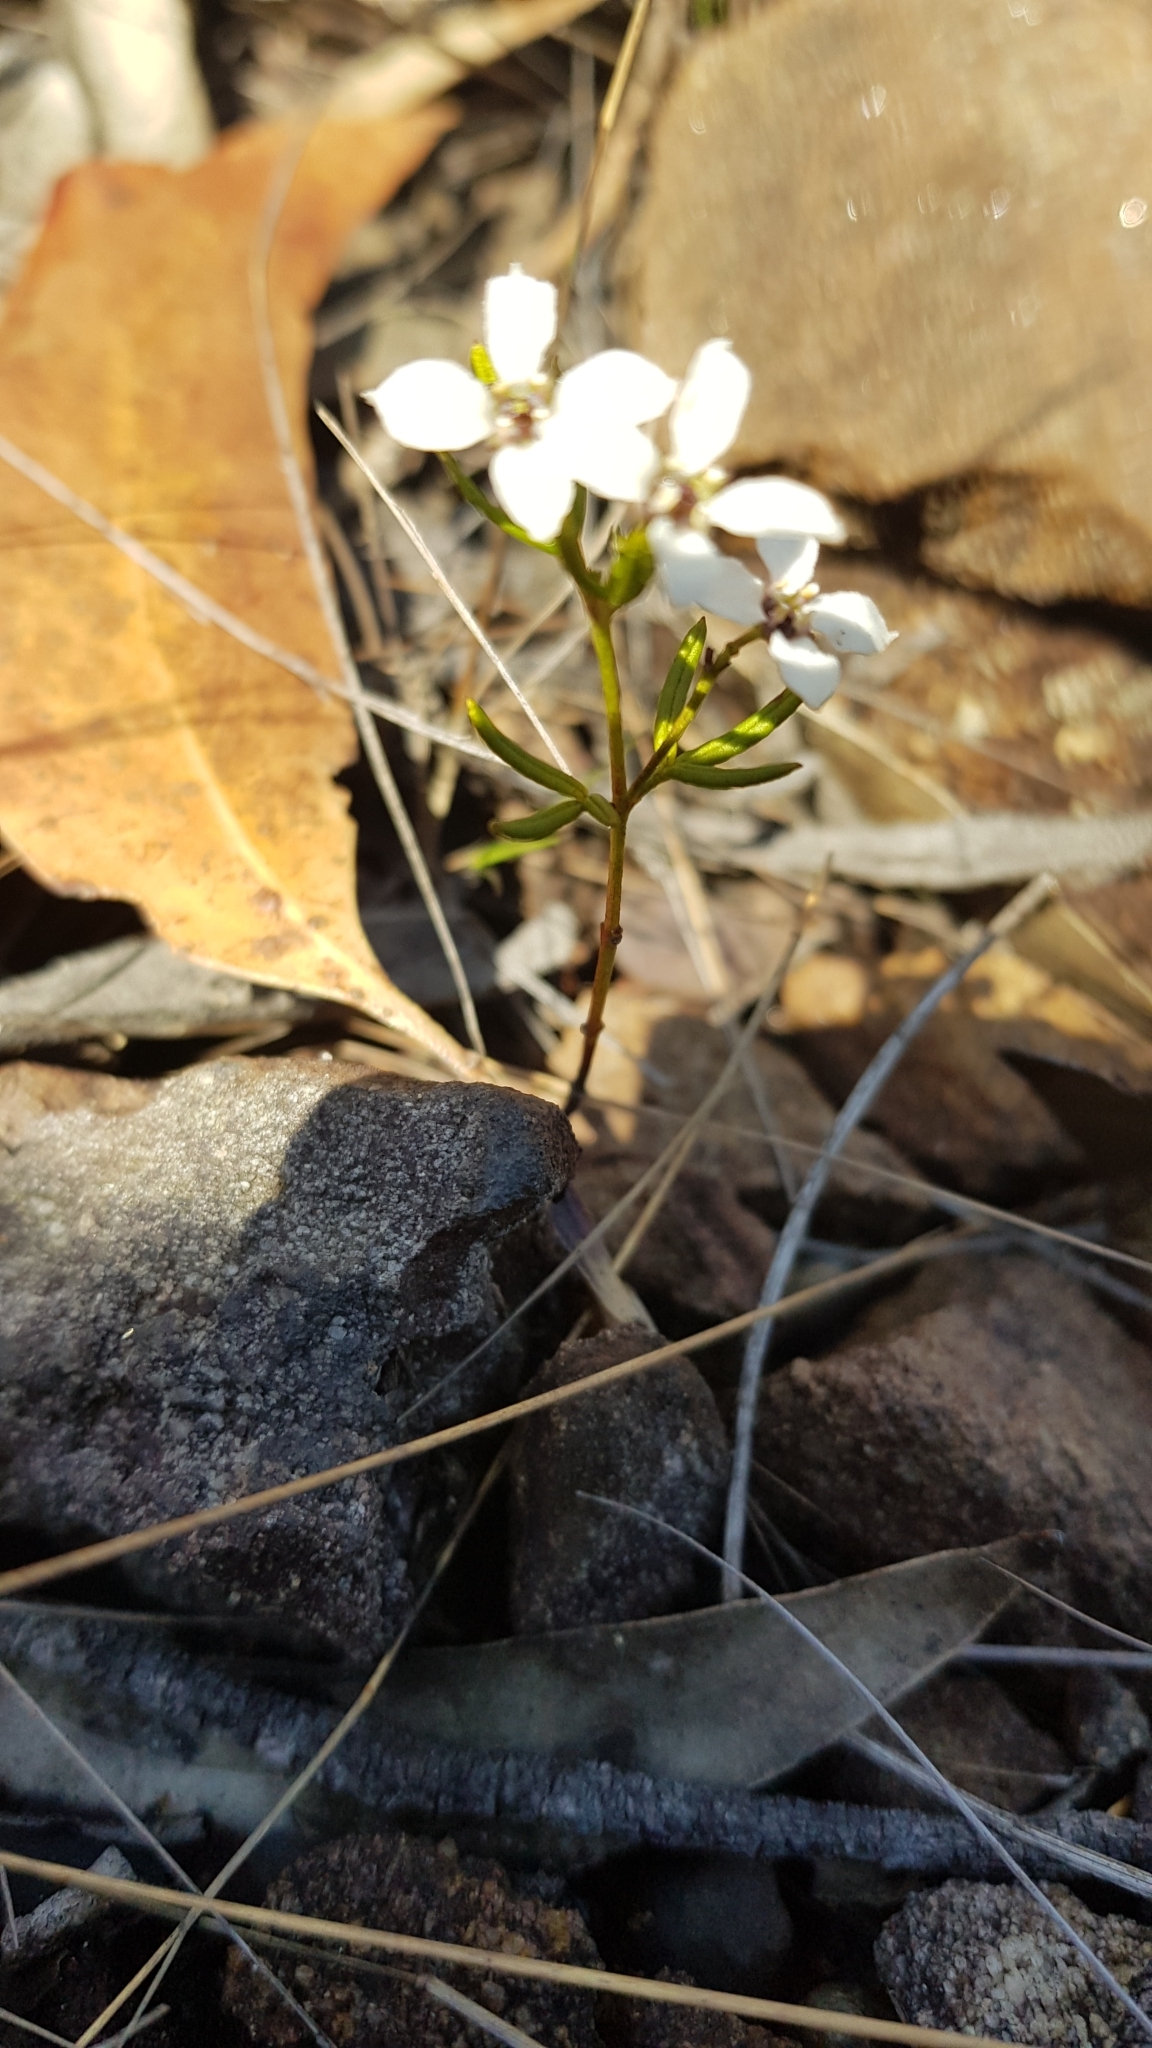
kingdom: Plantae
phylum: Tracheophyta
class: Magnoliopsida
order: Sapindales
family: Rutaceae
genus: Zieria
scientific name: Zieria laevigata
